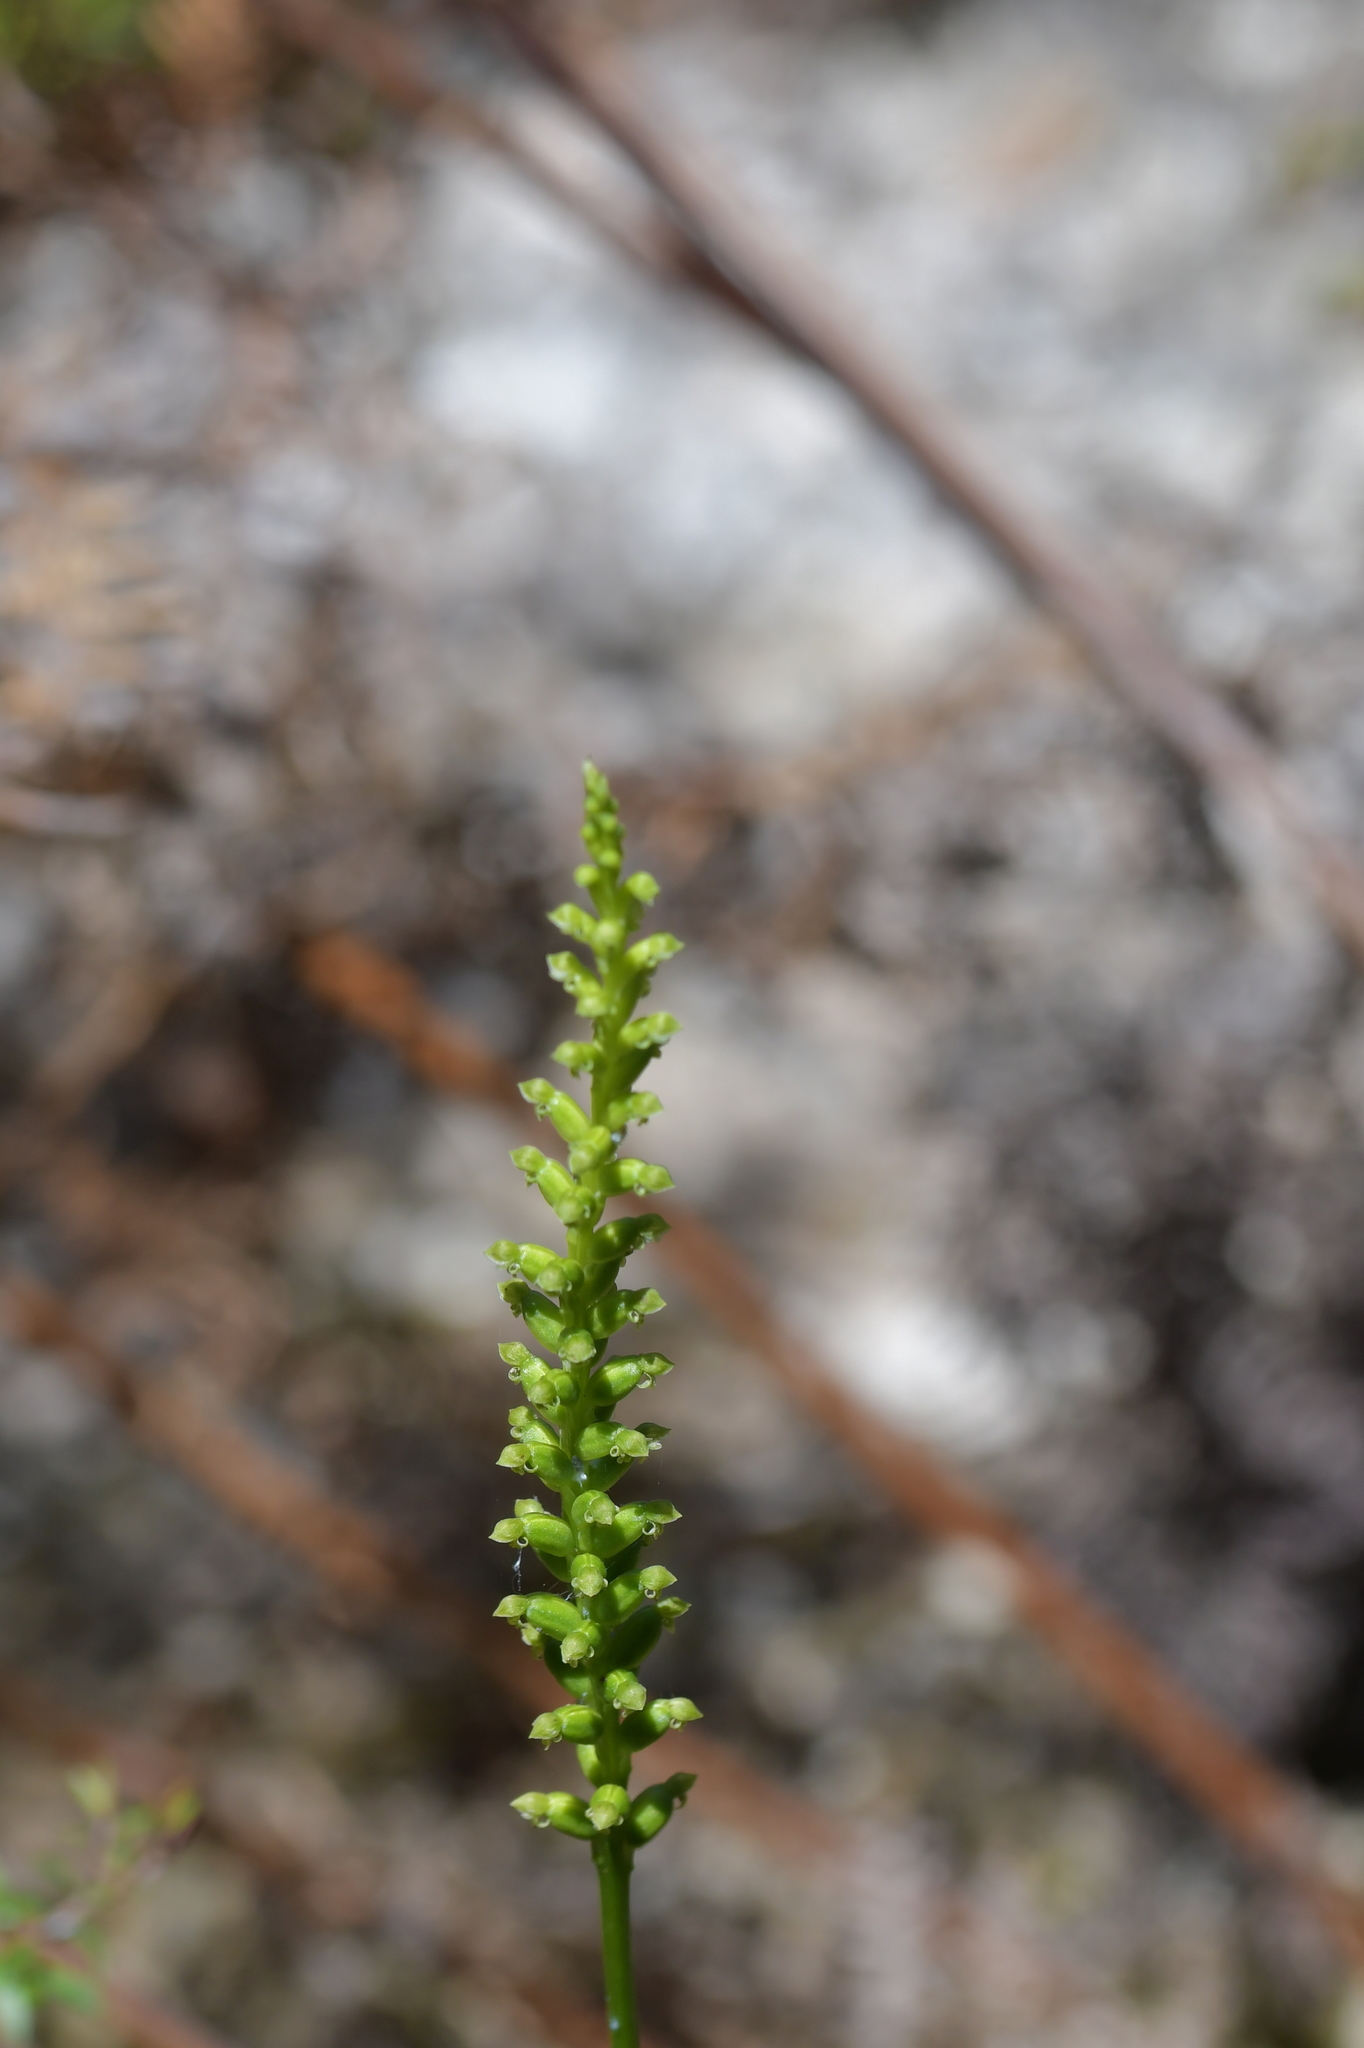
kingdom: Plantae
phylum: Tracheophyta
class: Liliopsida
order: Asparagales
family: Orchidaceae
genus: Microtis
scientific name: Microtis unifolia
